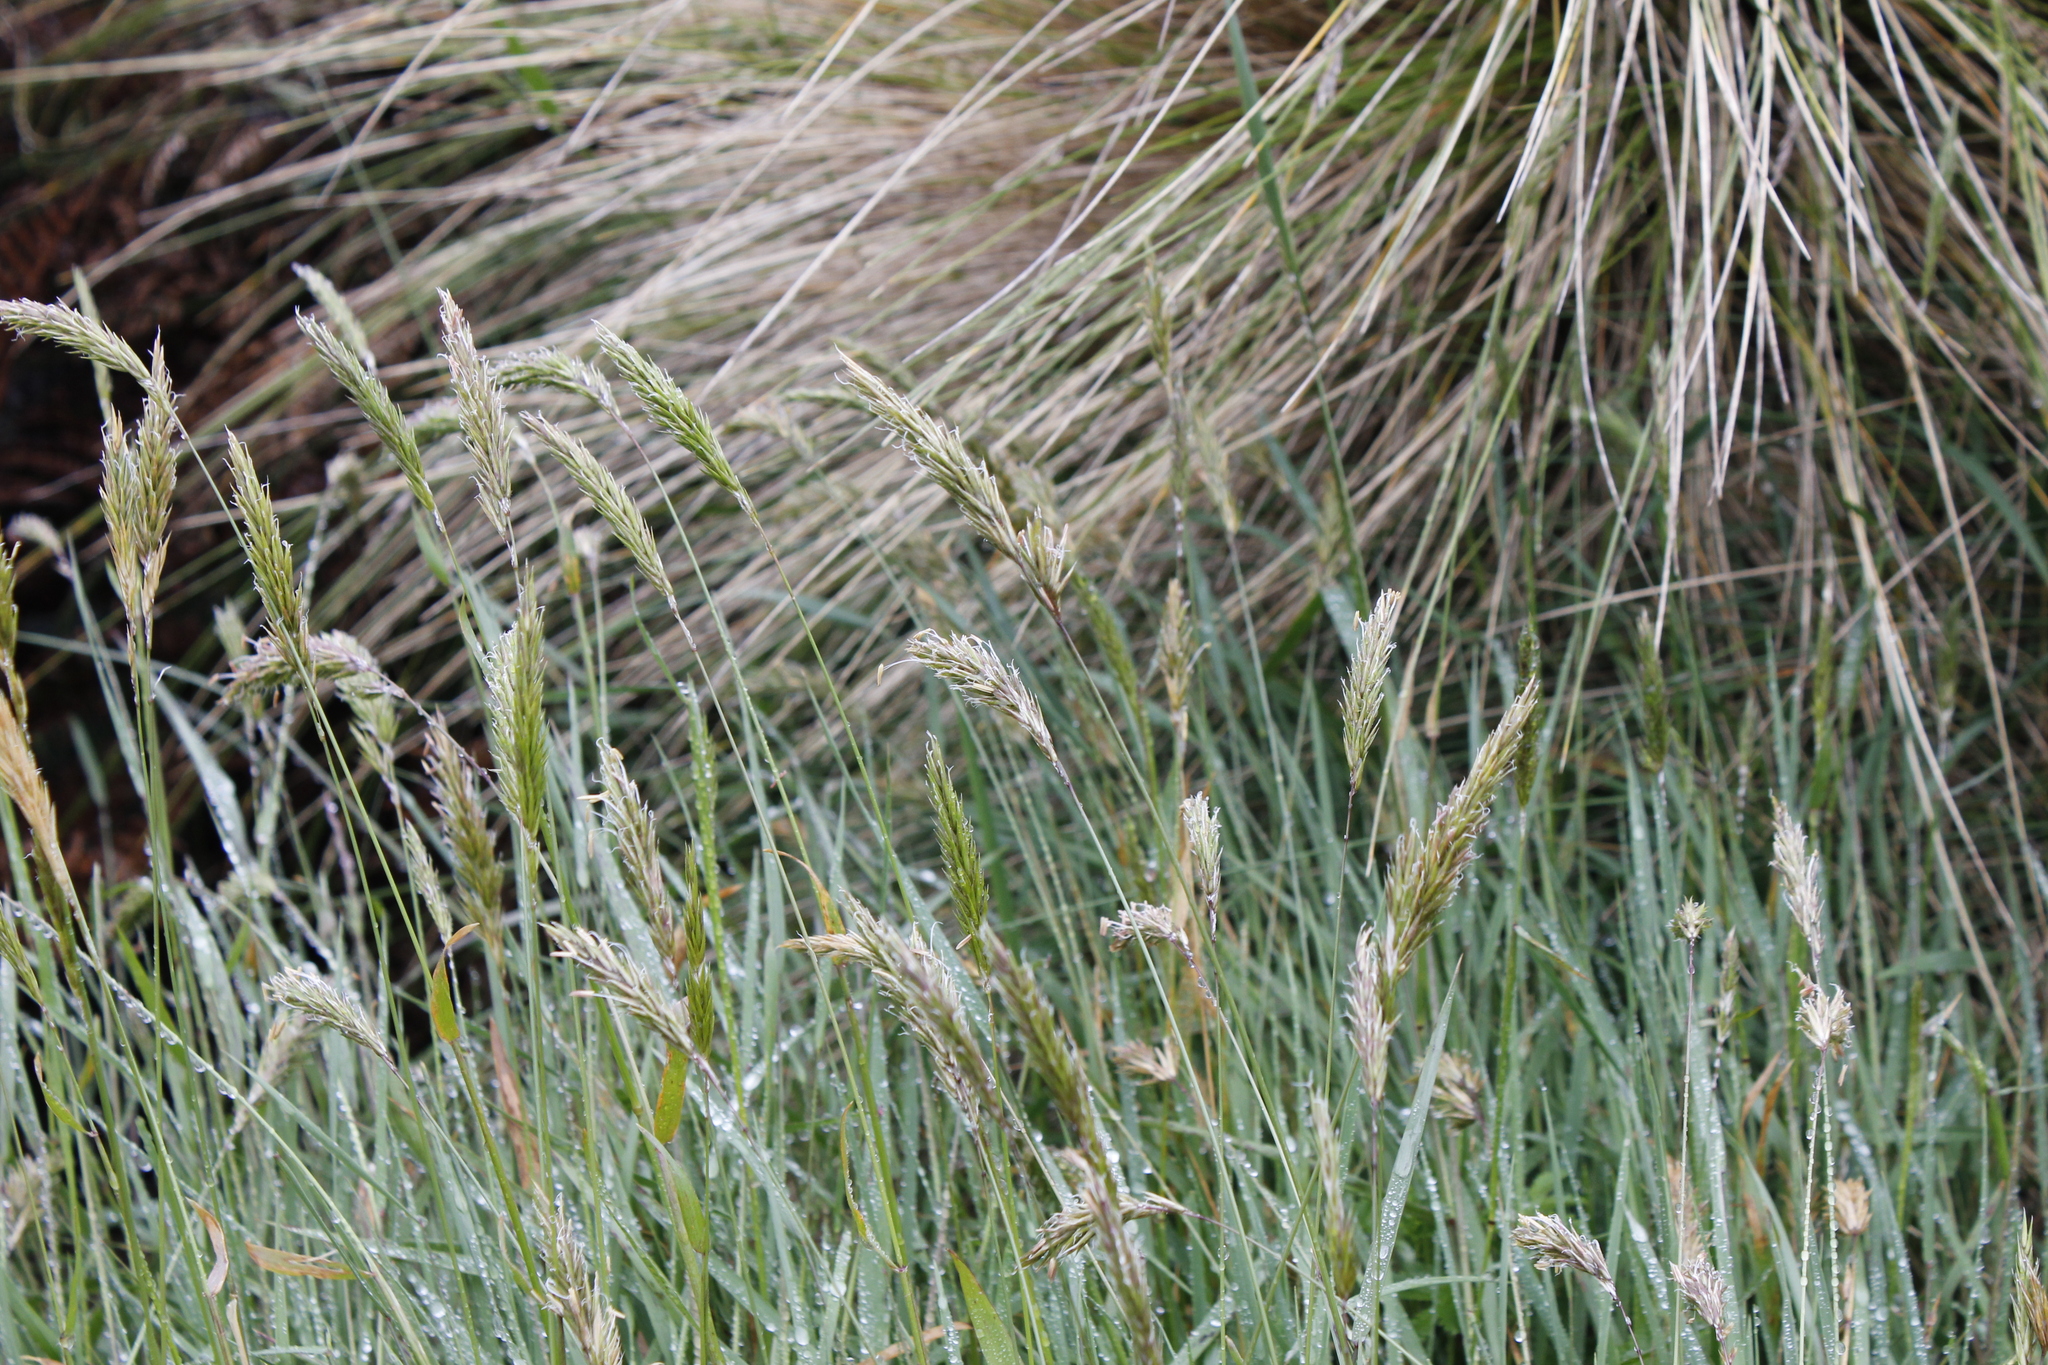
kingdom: Plantae
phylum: Tracheophyta
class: Liliopsida
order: Poales
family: Poaceae
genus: Anthoxanthum
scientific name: Anthoxanthum odoratum
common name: Sweet vernalgrass
